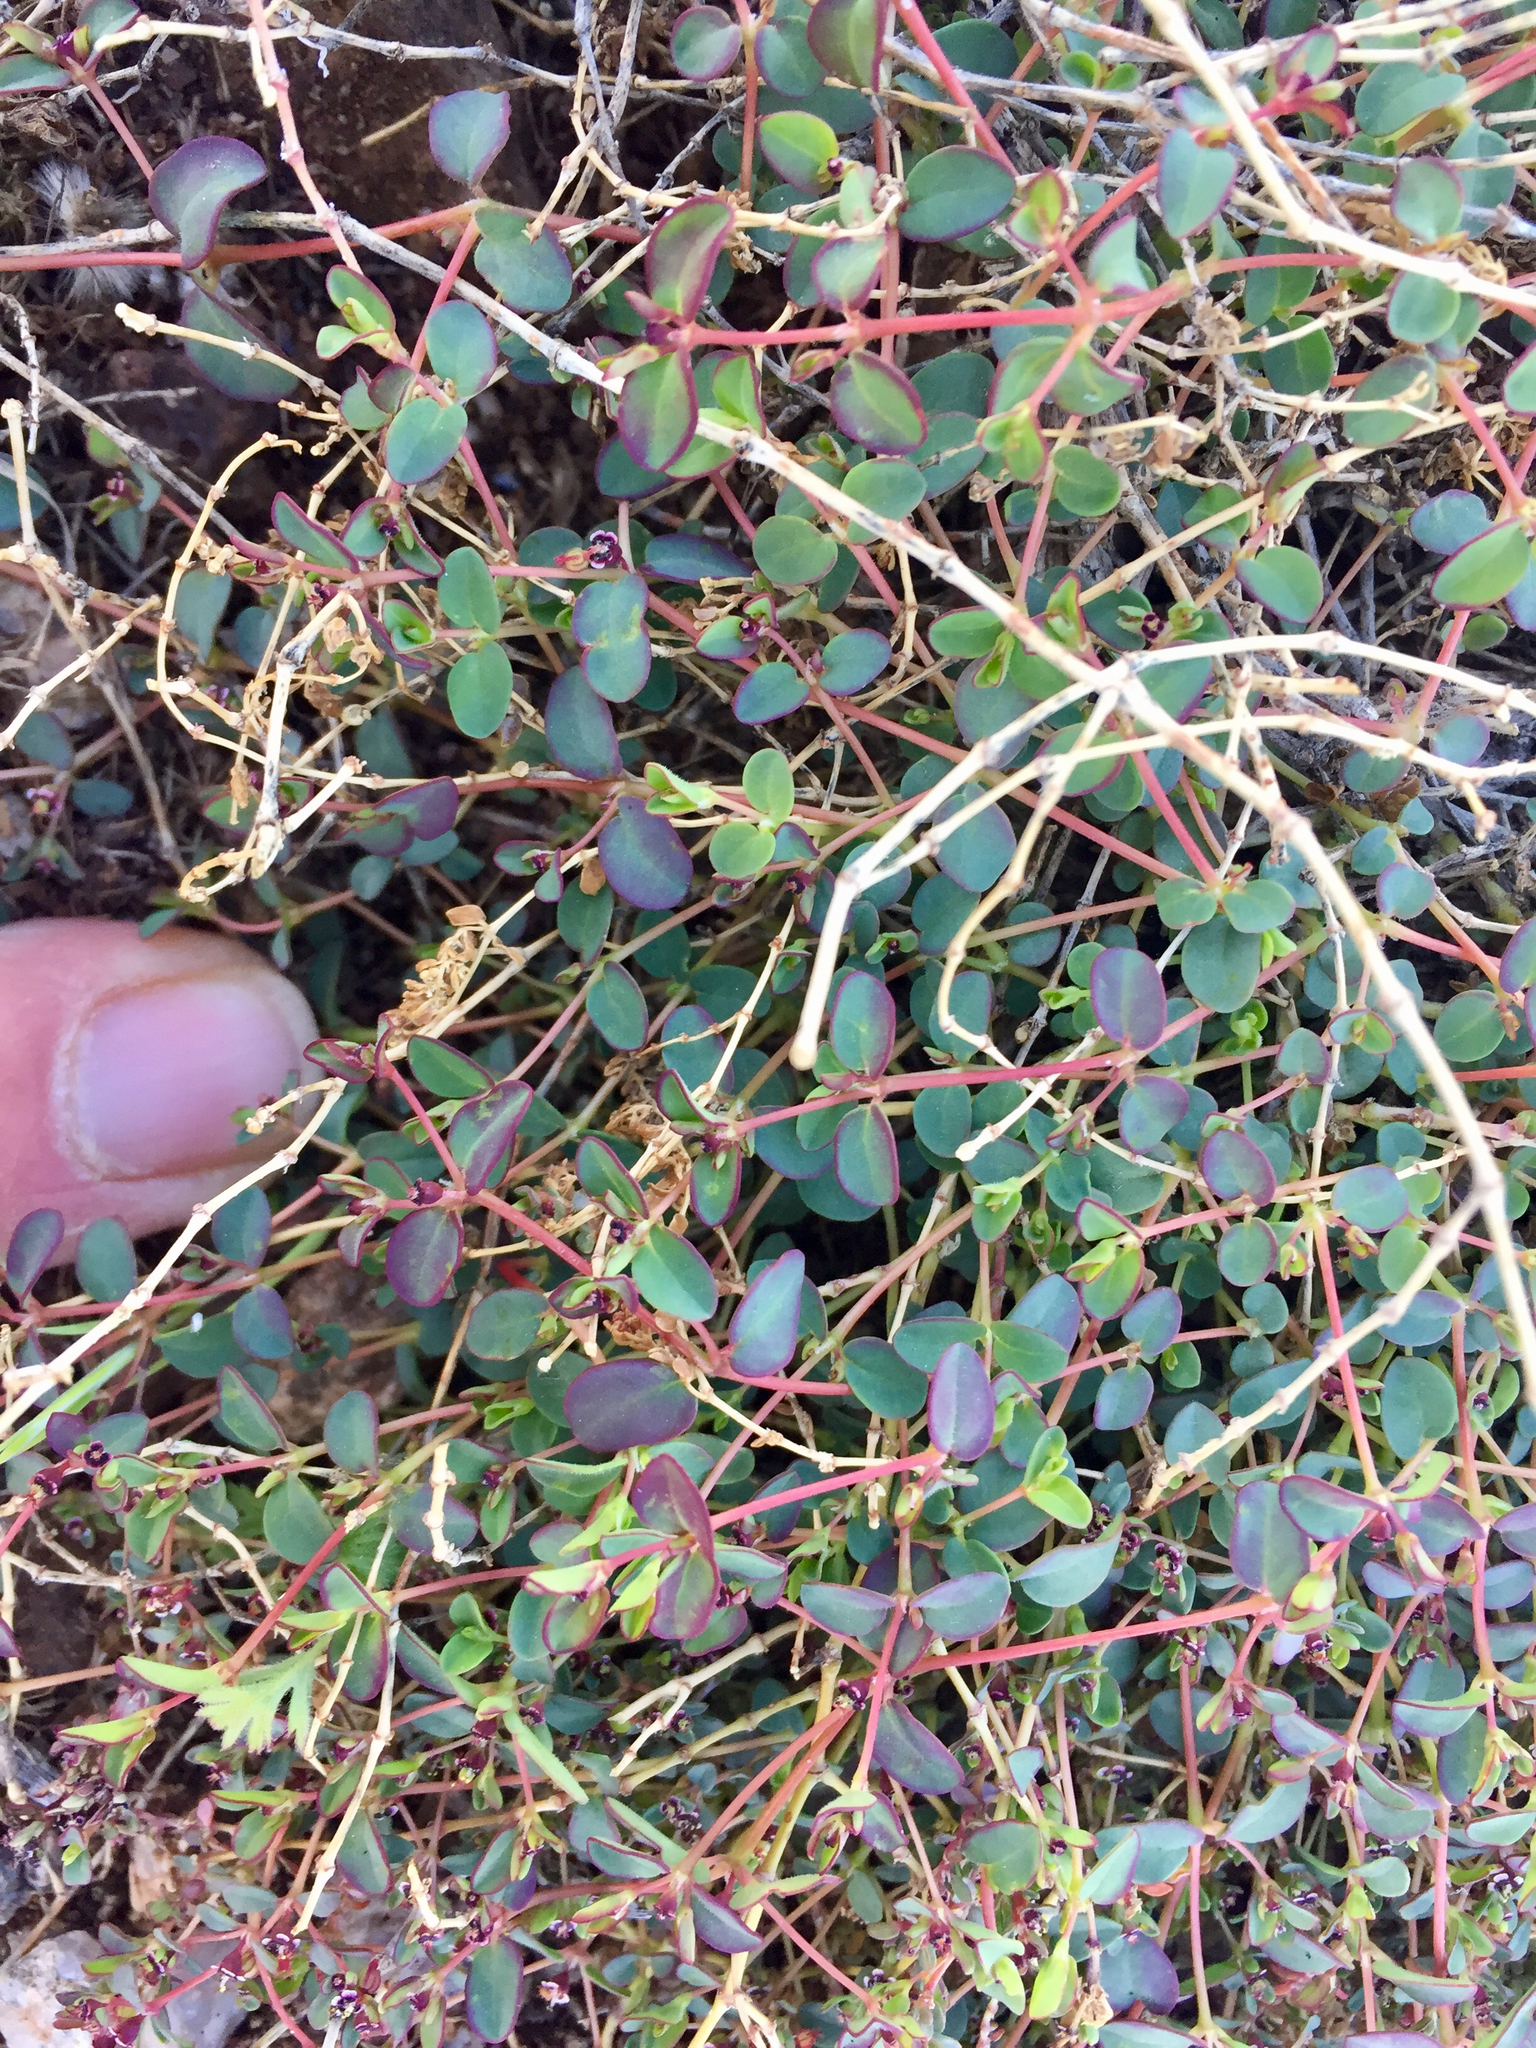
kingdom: Plantae
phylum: Tracheophyta
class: Magnoliopsida
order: Malpighiales
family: Euphorbiaceae
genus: Euphorbia
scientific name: Euphorbia polycarpa
